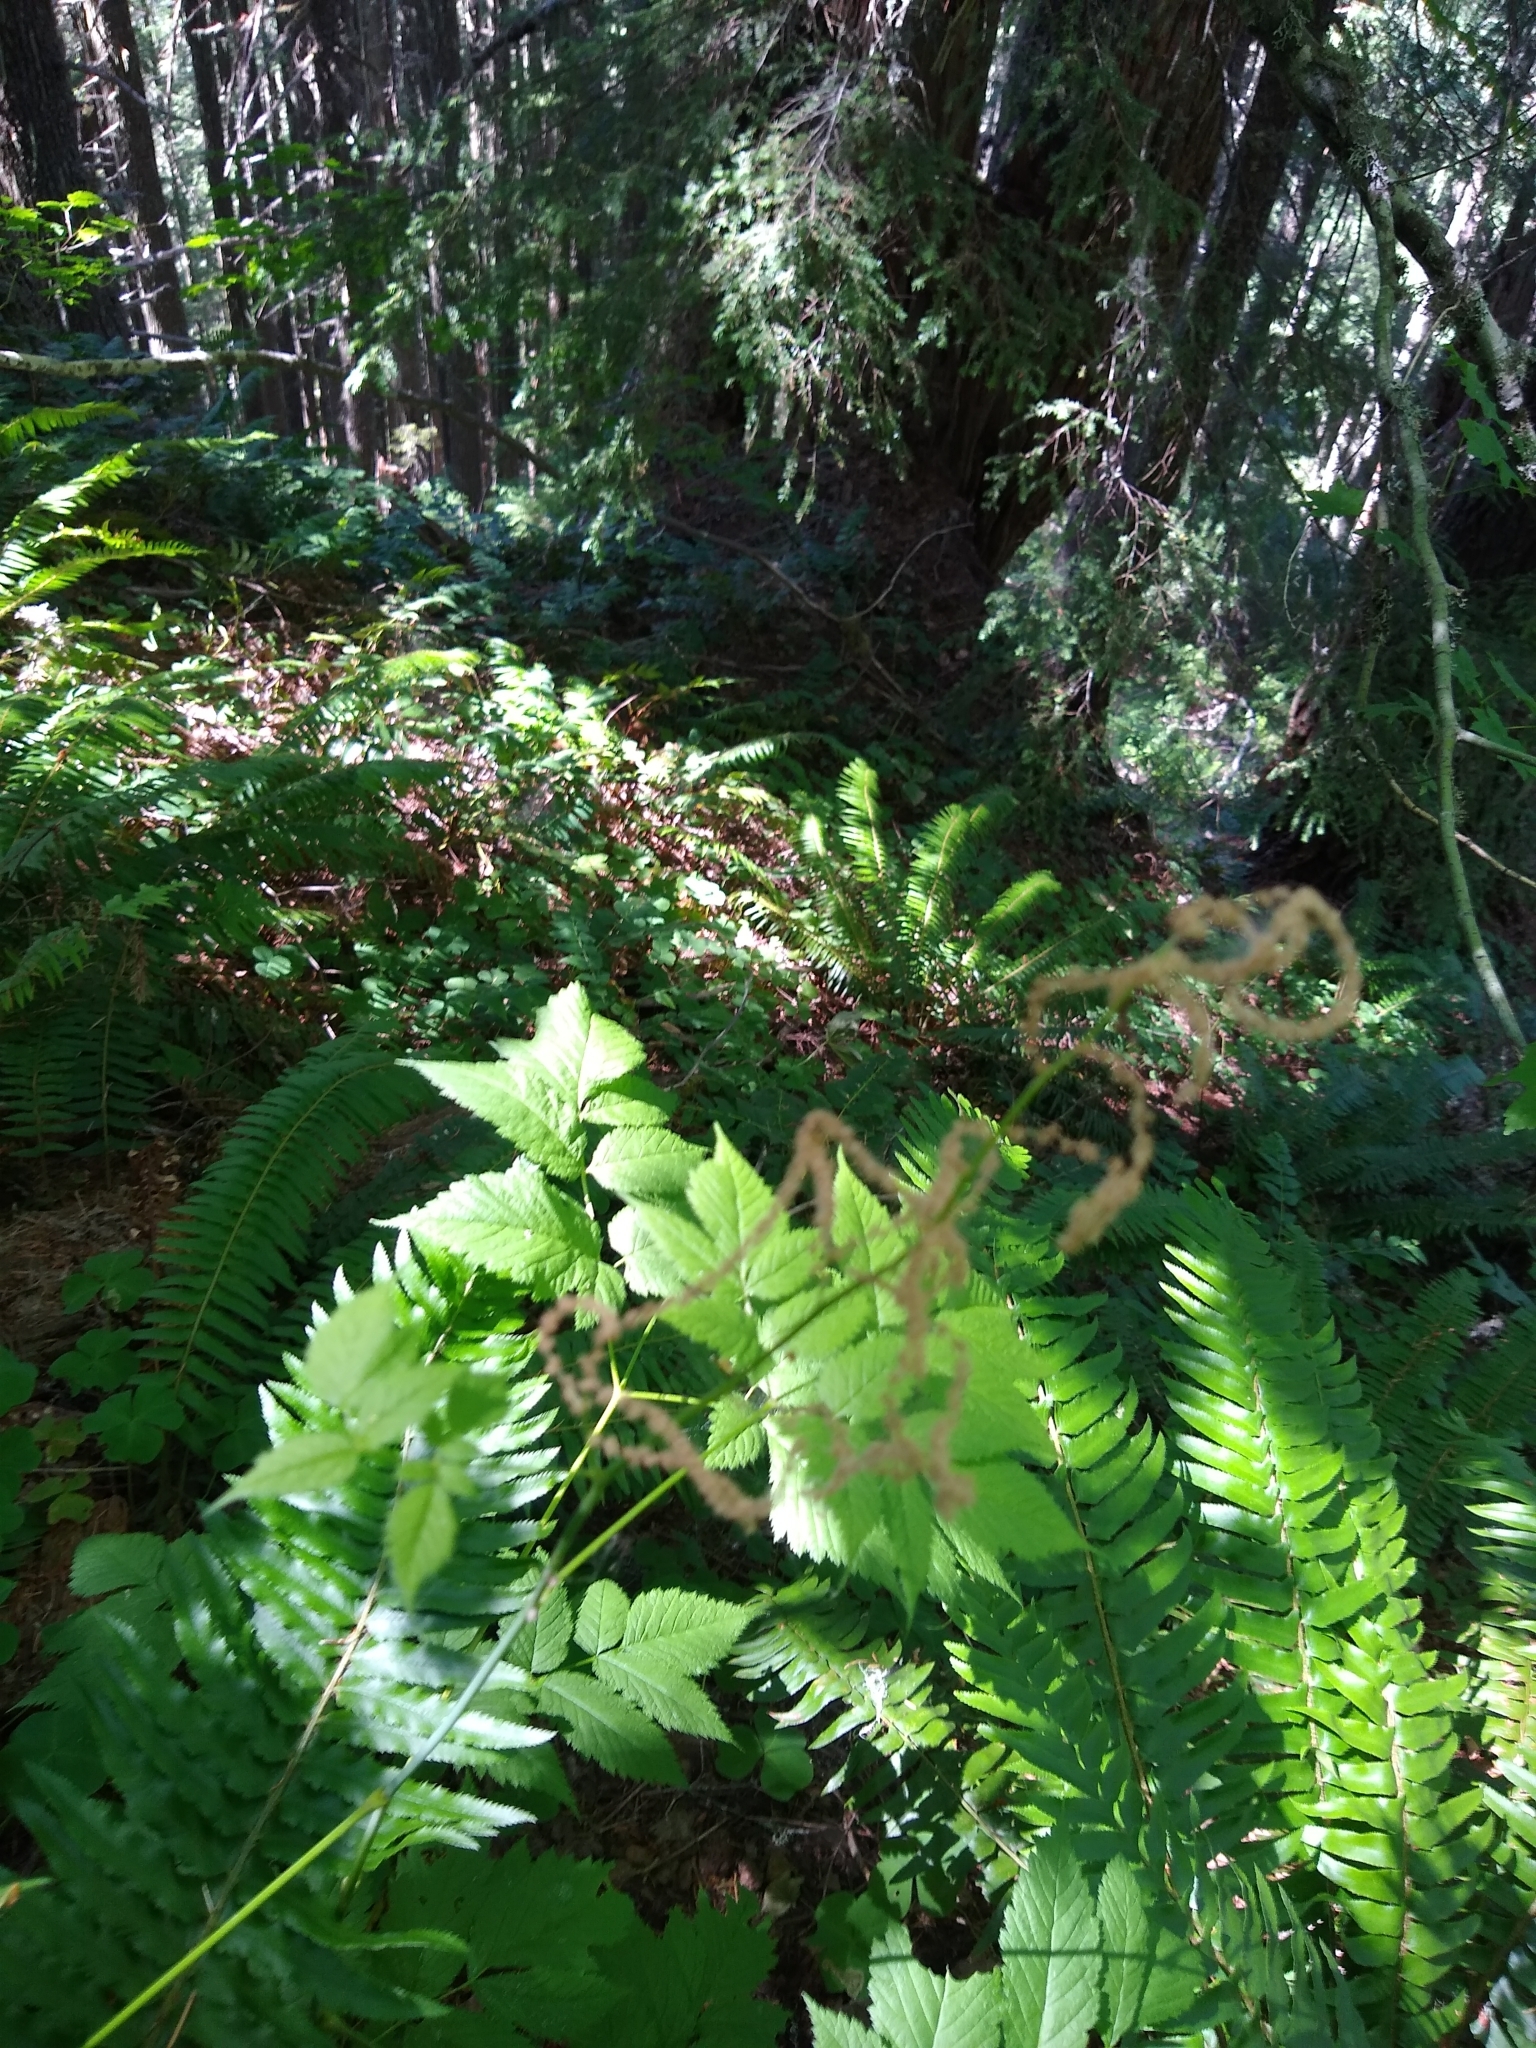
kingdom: Plantae
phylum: Tracheophyta
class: Magnoliopsida
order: Rosales
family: Rosaceae
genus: Aruncus
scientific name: Aruncus dioicus
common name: Buck's-beard
